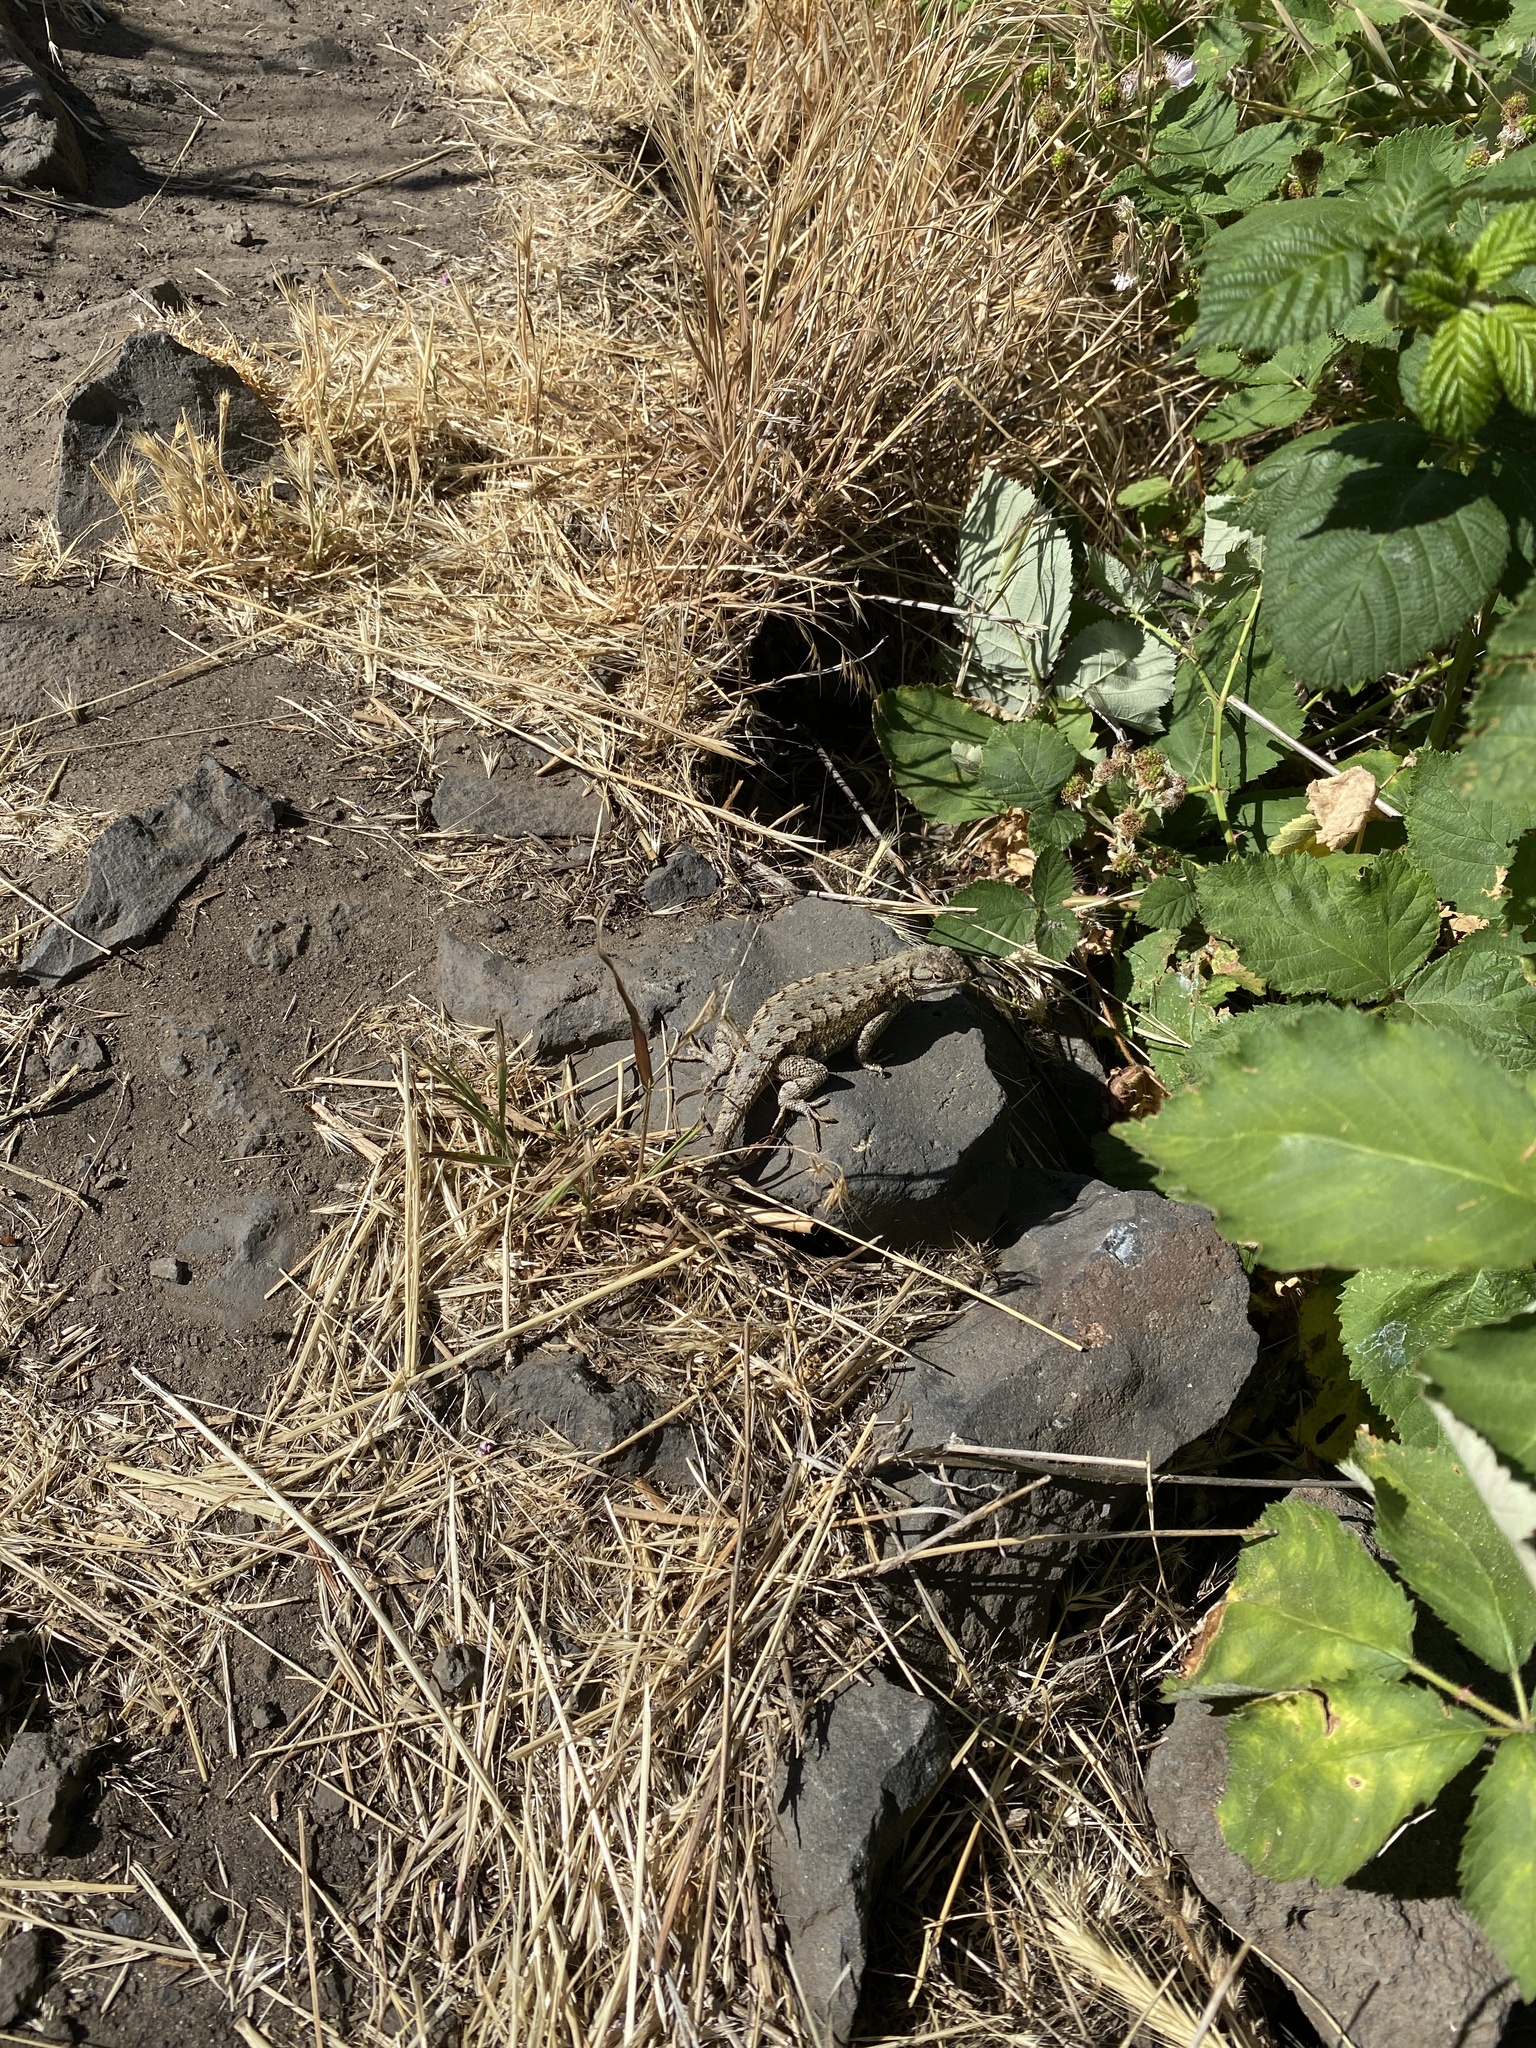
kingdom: Animalia
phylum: Chordata
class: Squamata
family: Phrynosomatidae
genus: Sceloporus
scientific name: Sceloporus occidentalis
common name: Western fence lizard
